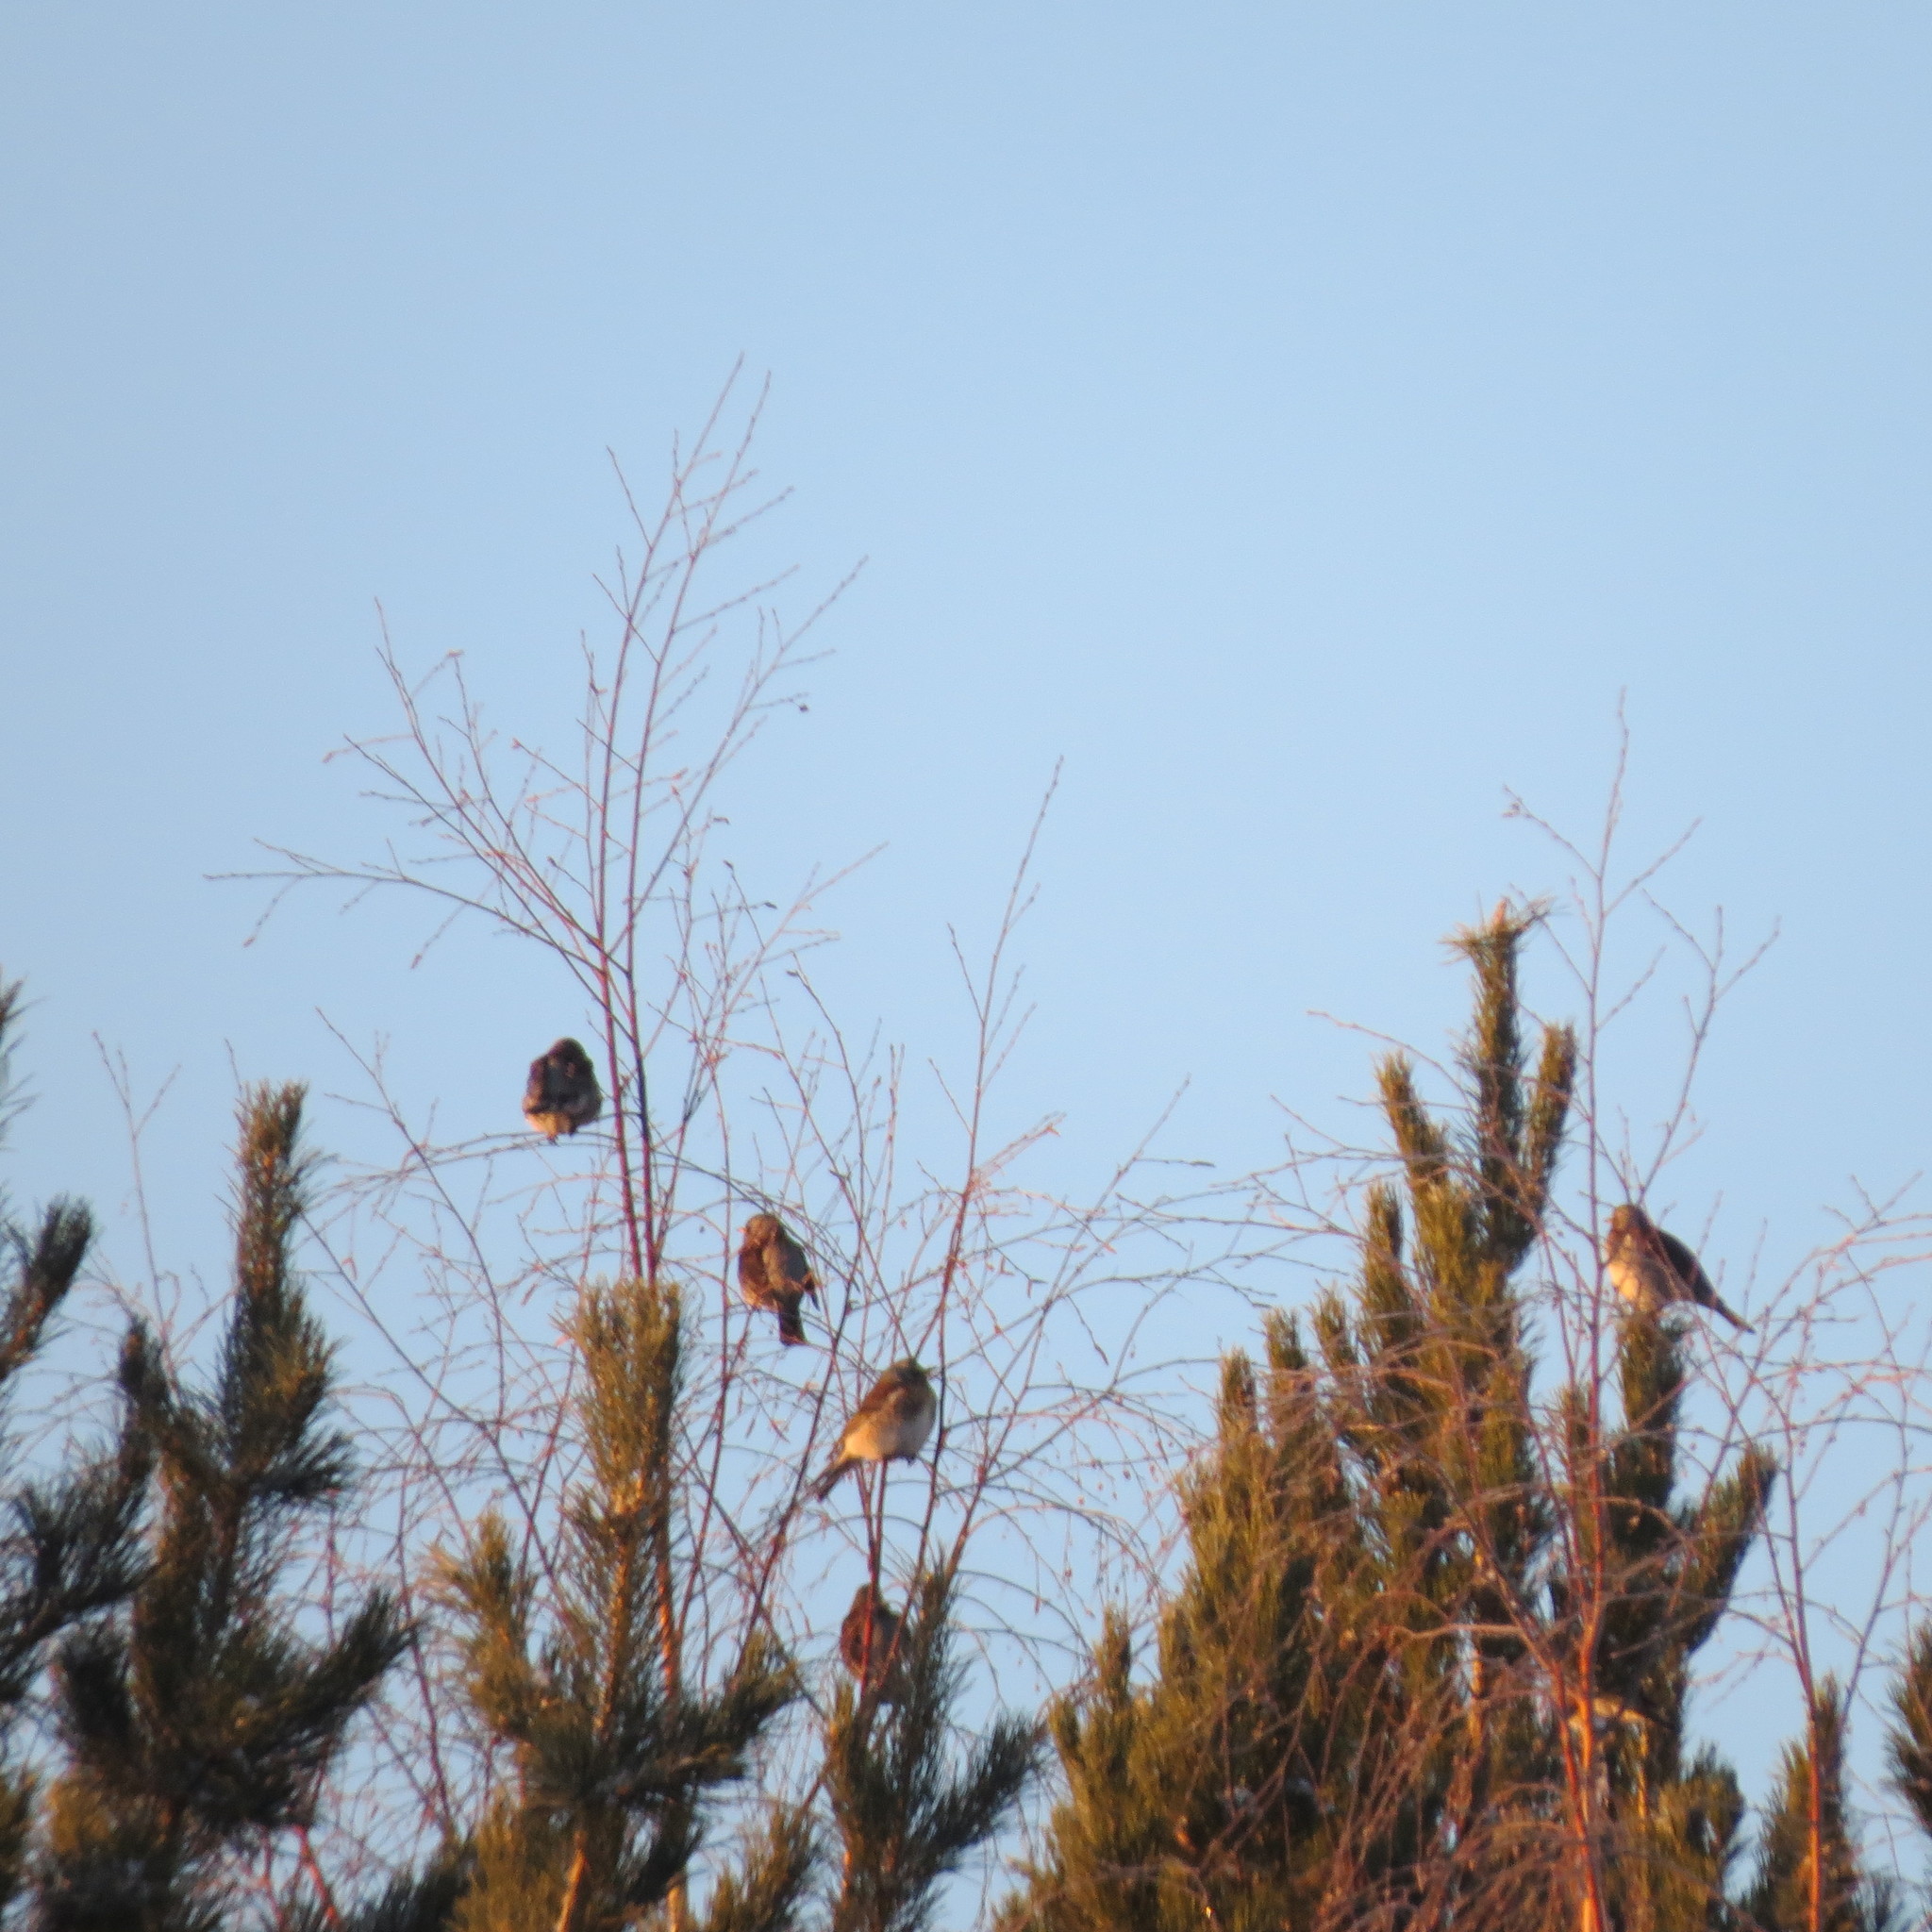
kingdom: Animalia
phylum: Chordata
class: Aves
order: Passeriformes
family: Turdidae
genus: Turdus
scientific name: Turdus pilaris
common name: Fieldfare
